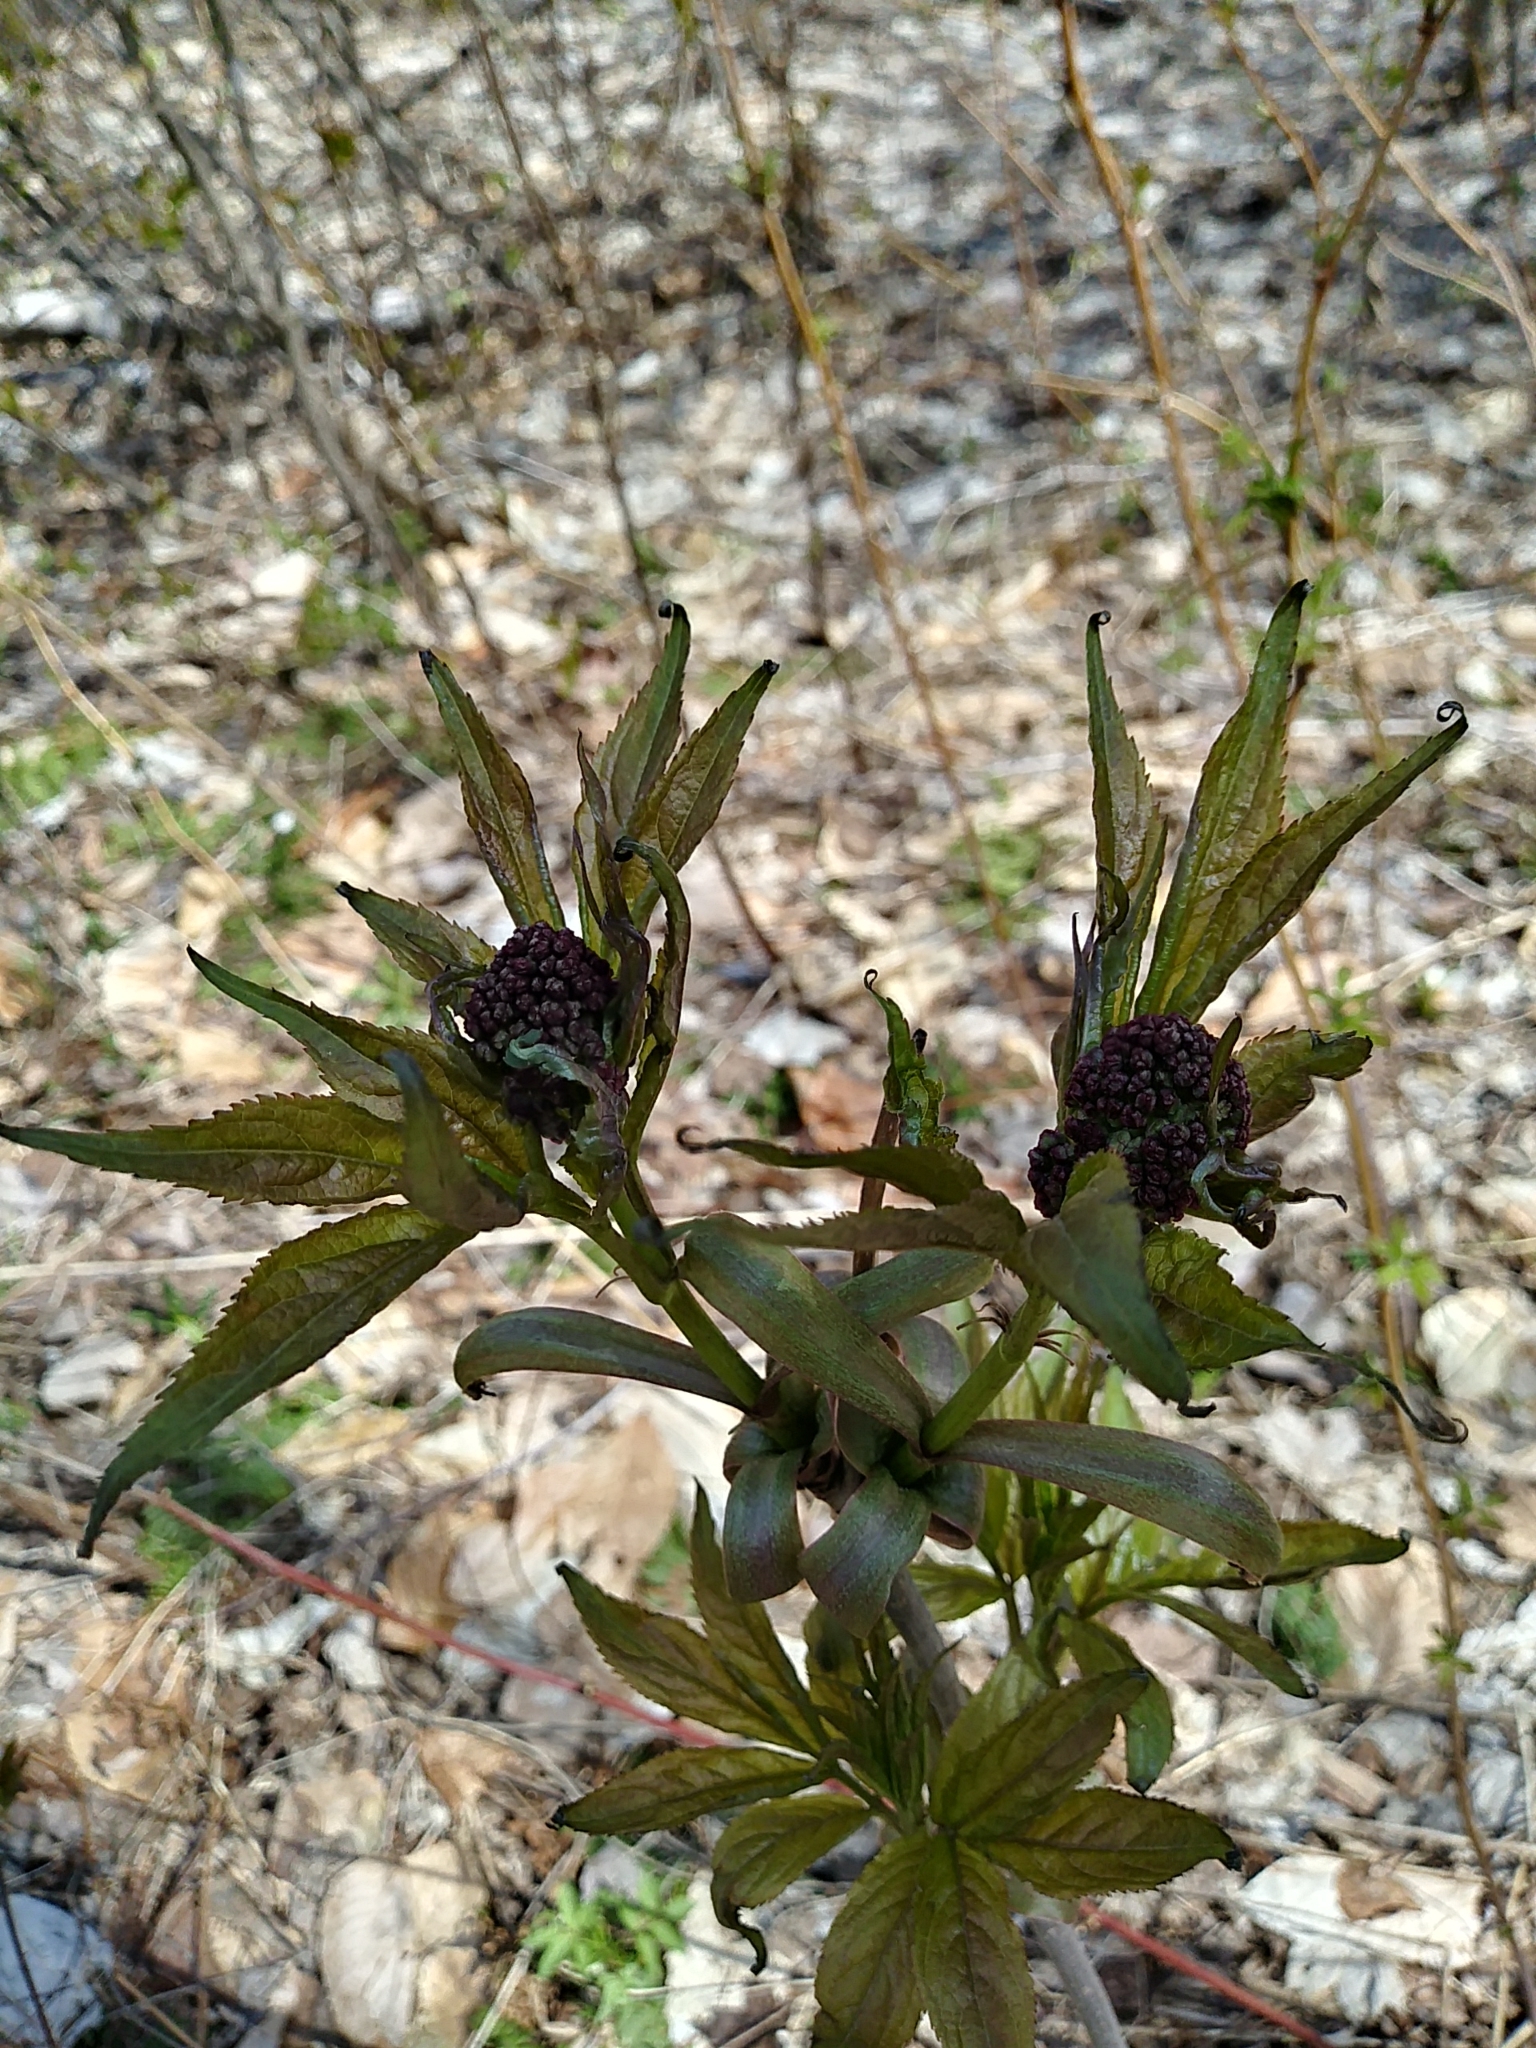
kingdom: Plantae
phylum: Tracheophyta
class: Magnoliopsida
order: Dipsacales
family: Viburnaceae
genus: Sambucus
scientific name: Sambucus racemosa
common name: Red-berried elder
